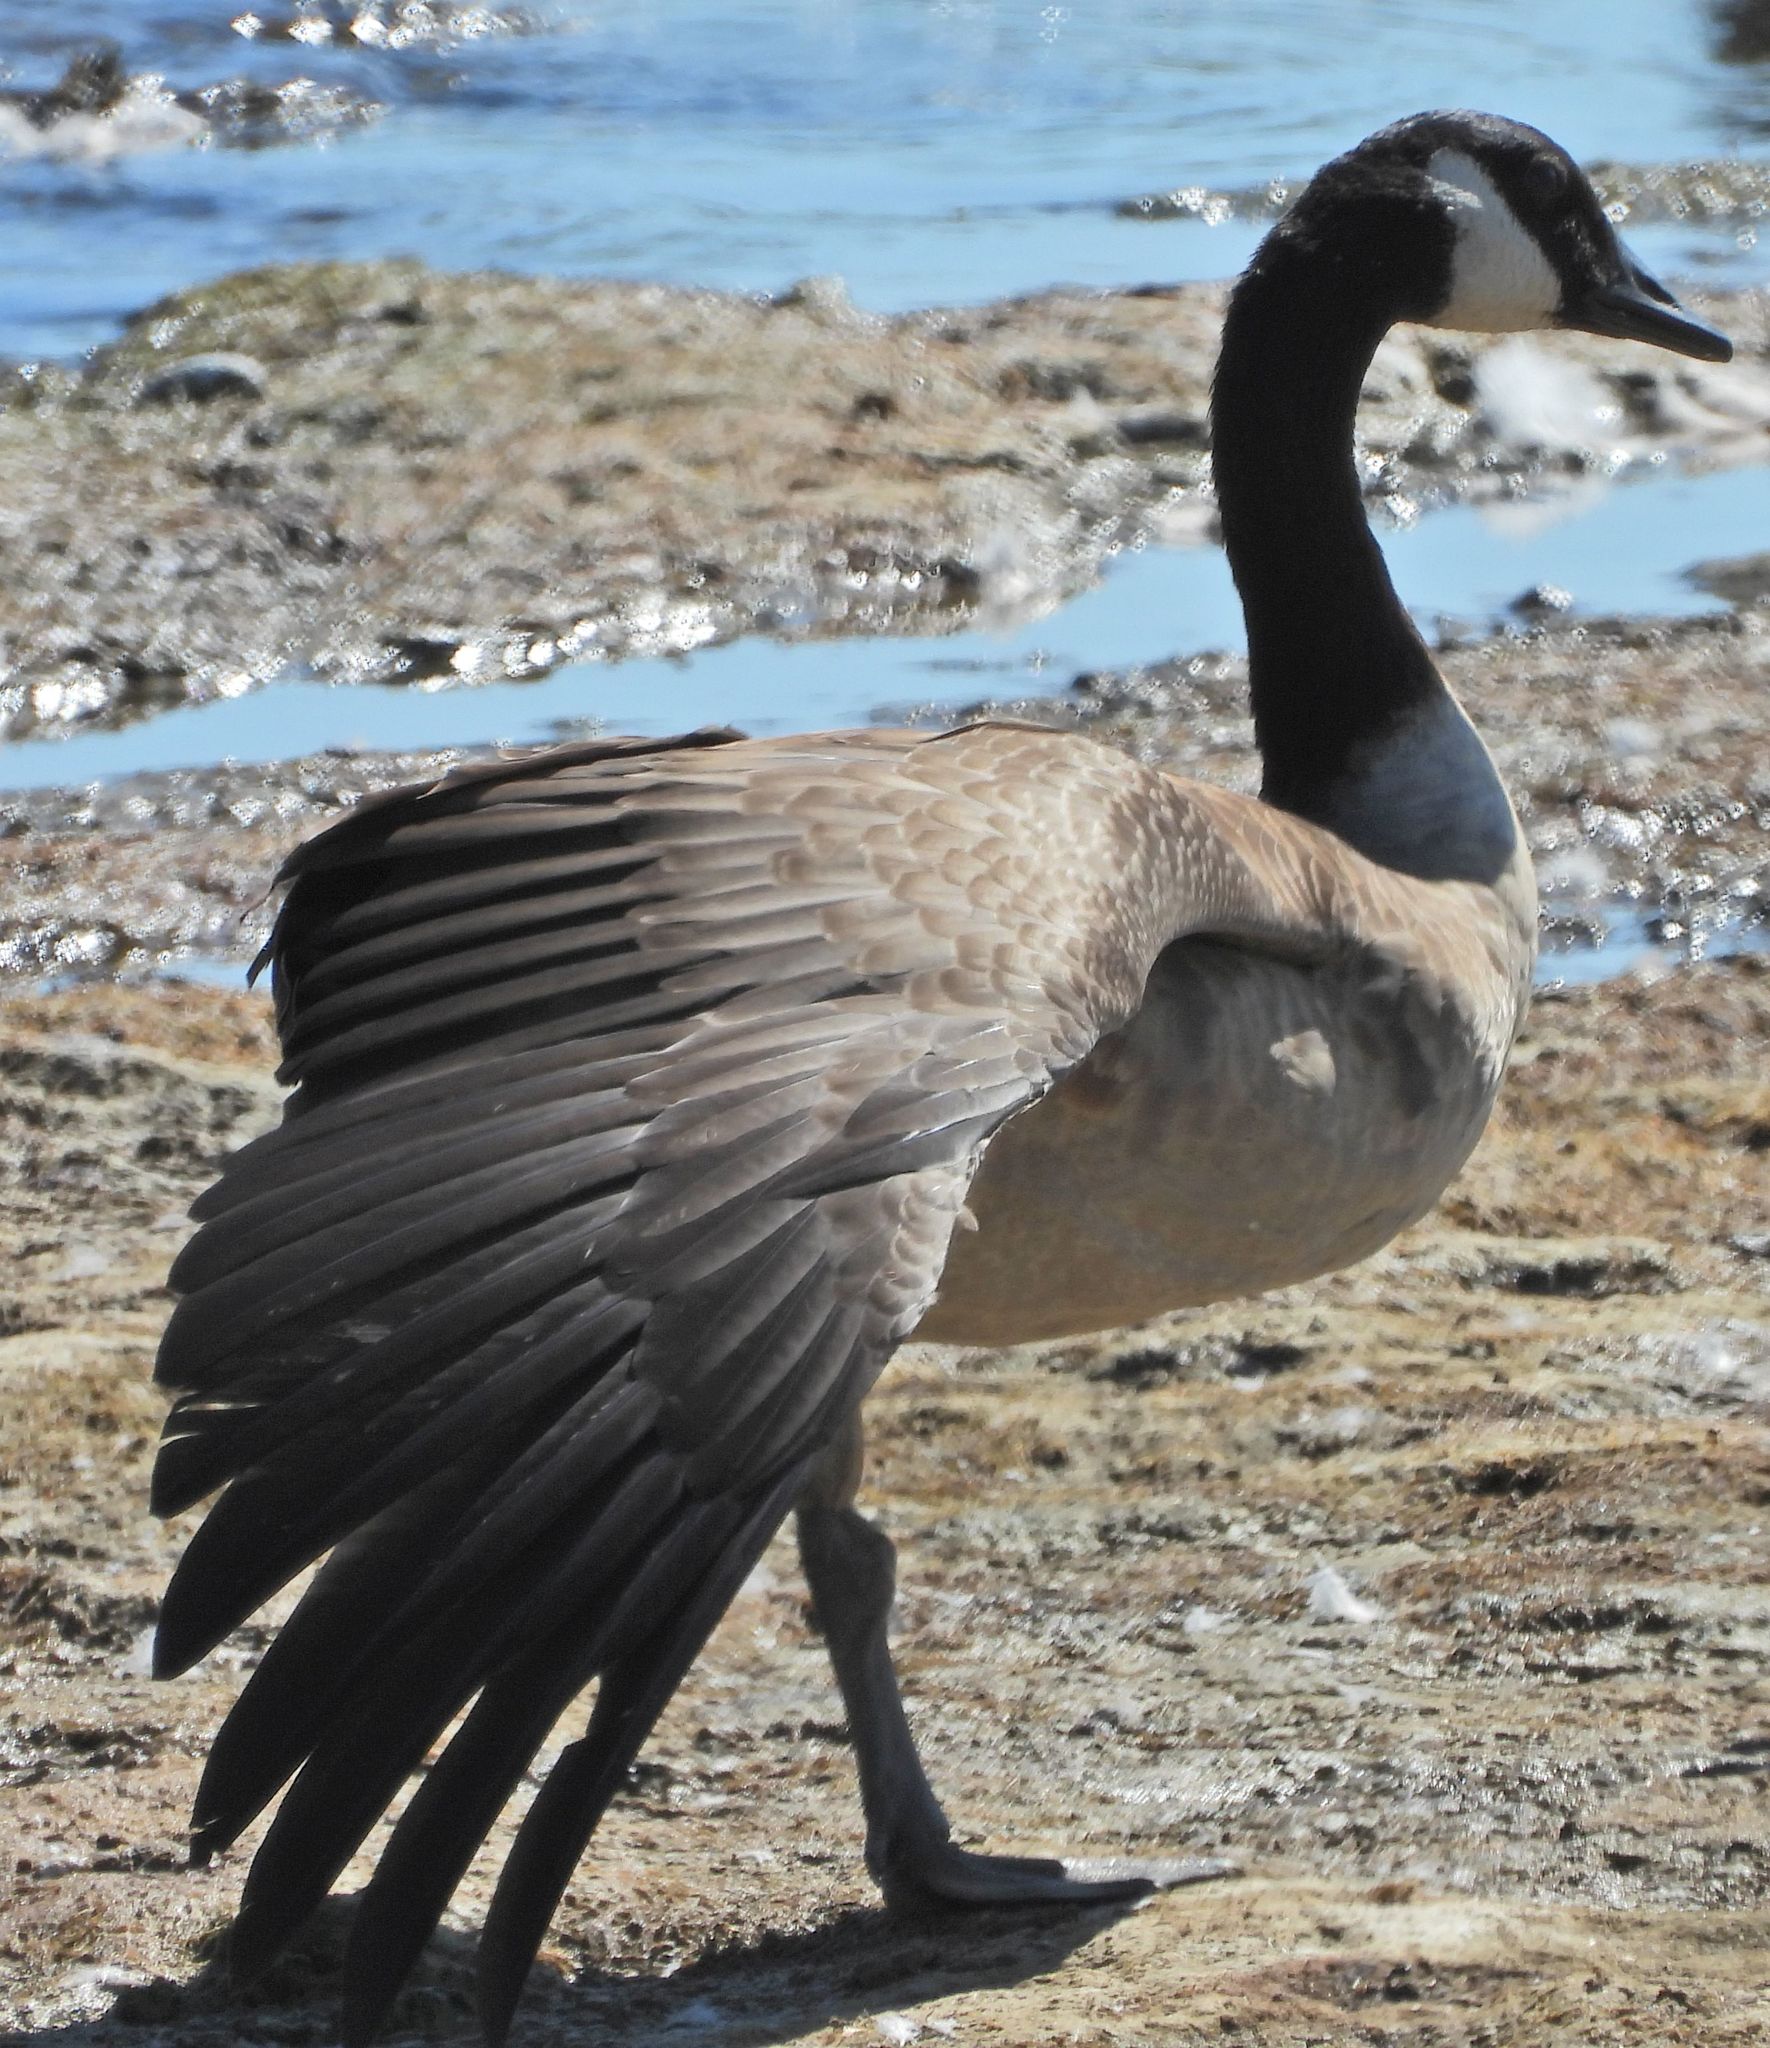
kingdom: Animalia
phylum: Chordata
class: Aves
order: Anseriformes
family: Anatidae
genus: Branta
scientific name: Branta canadensis
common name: Canada goose
